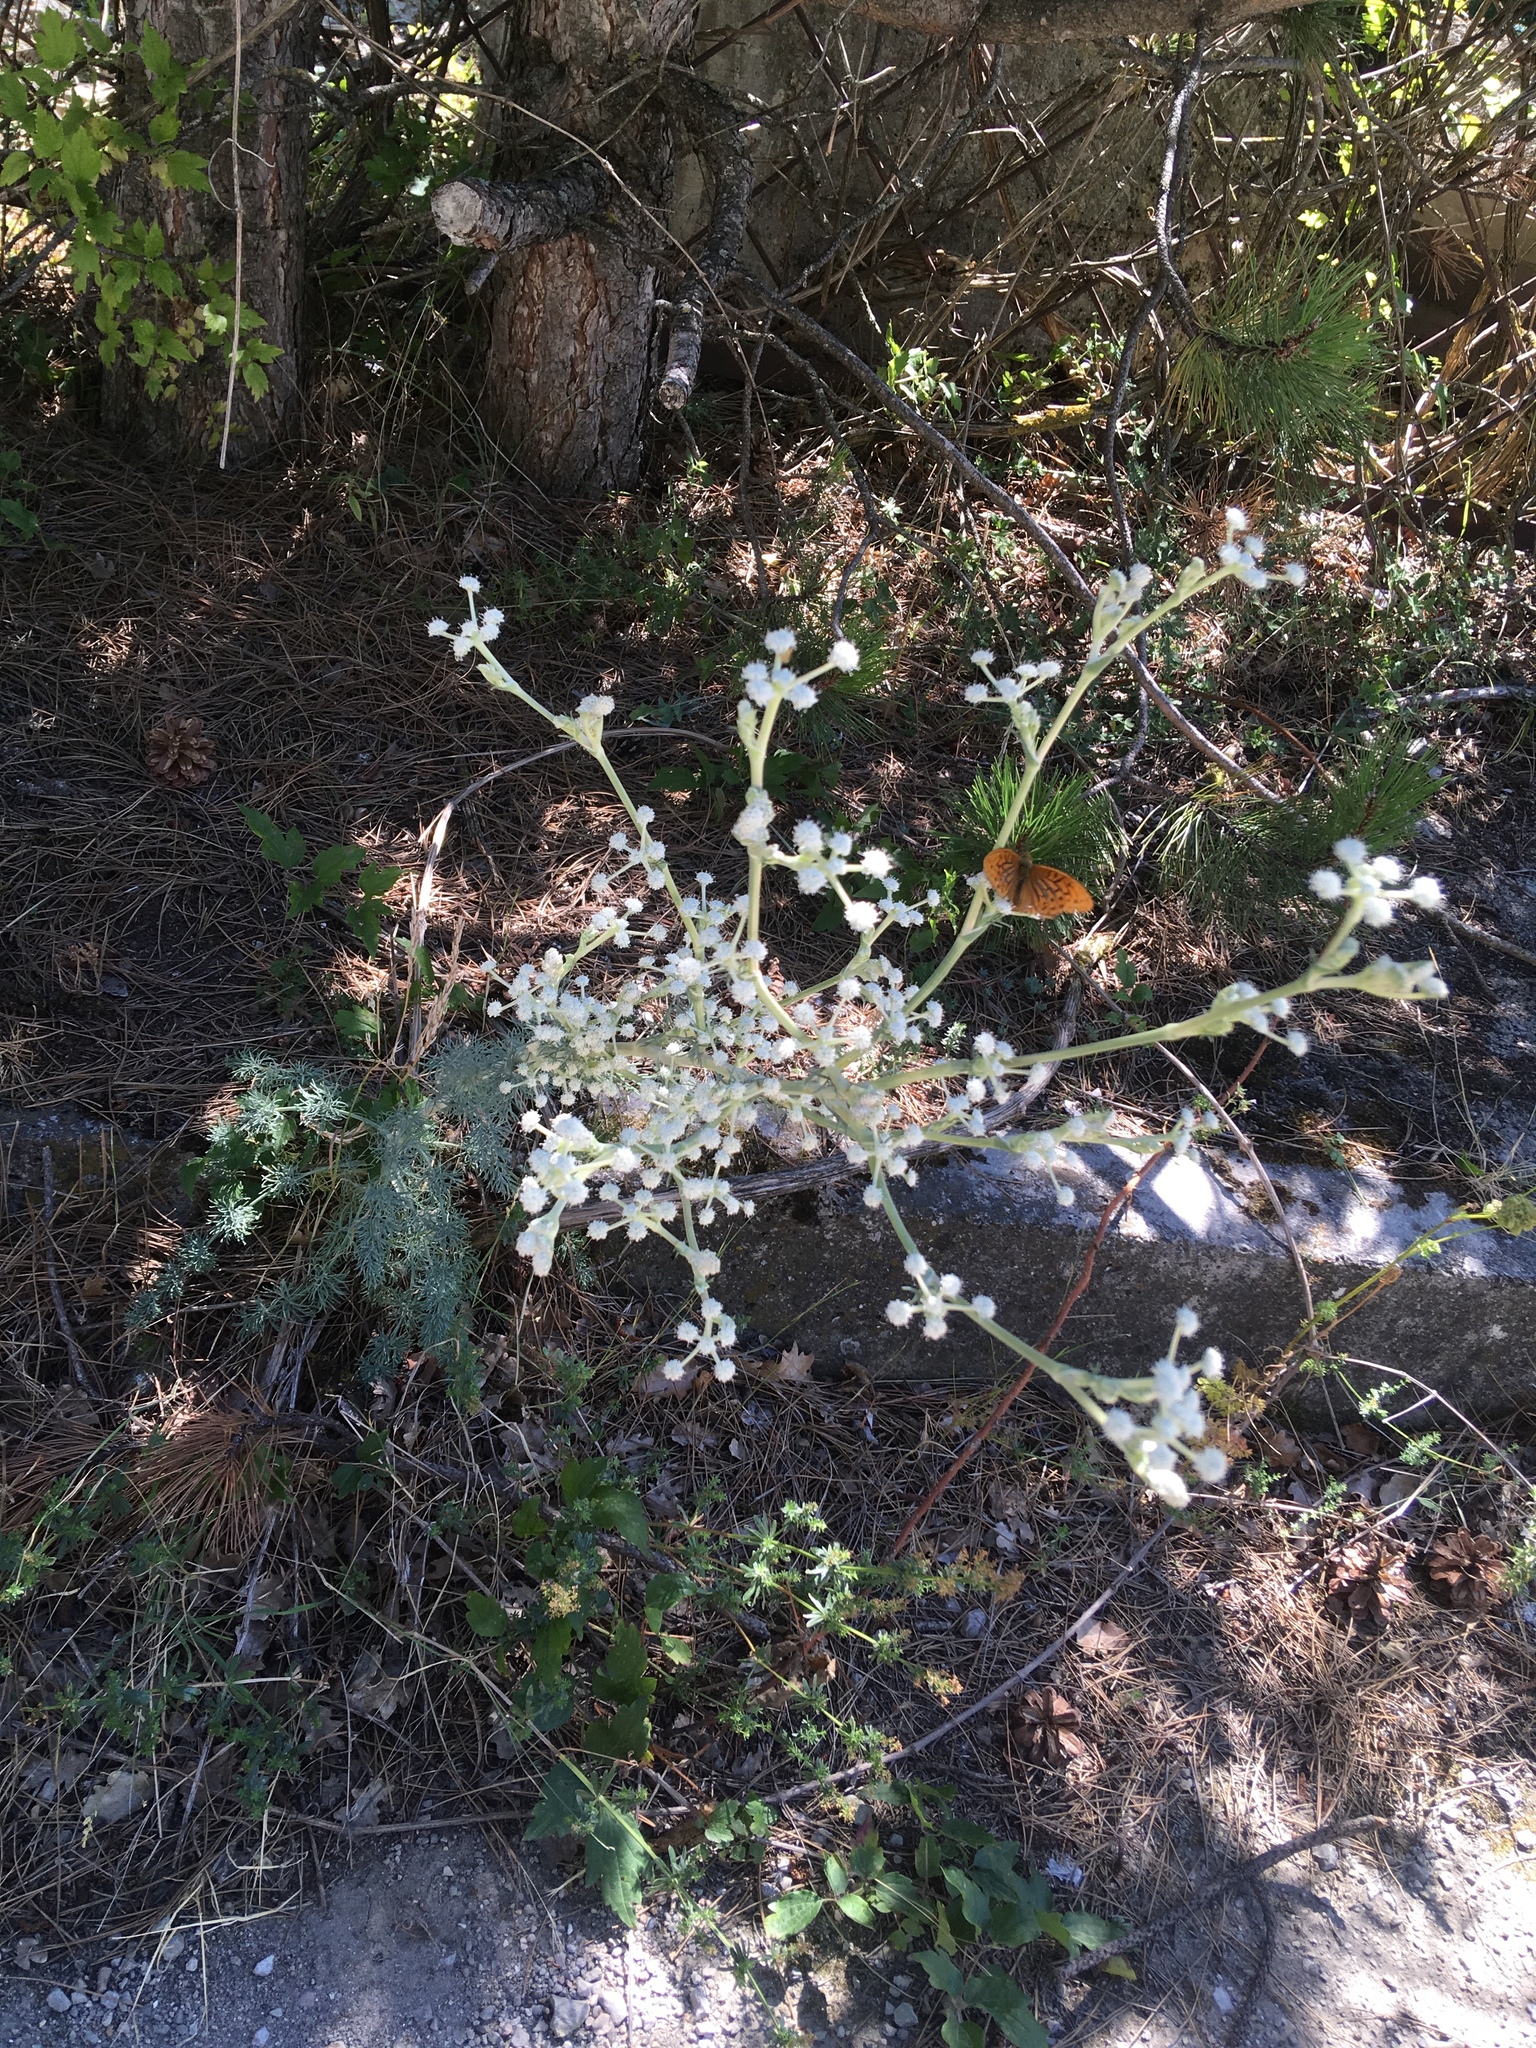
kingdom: Plantae
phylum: Tracheophyta
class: Magnoliopsida
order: Apiales
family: Apiaceae
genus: Seseli
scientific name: Seseli dichotomum
